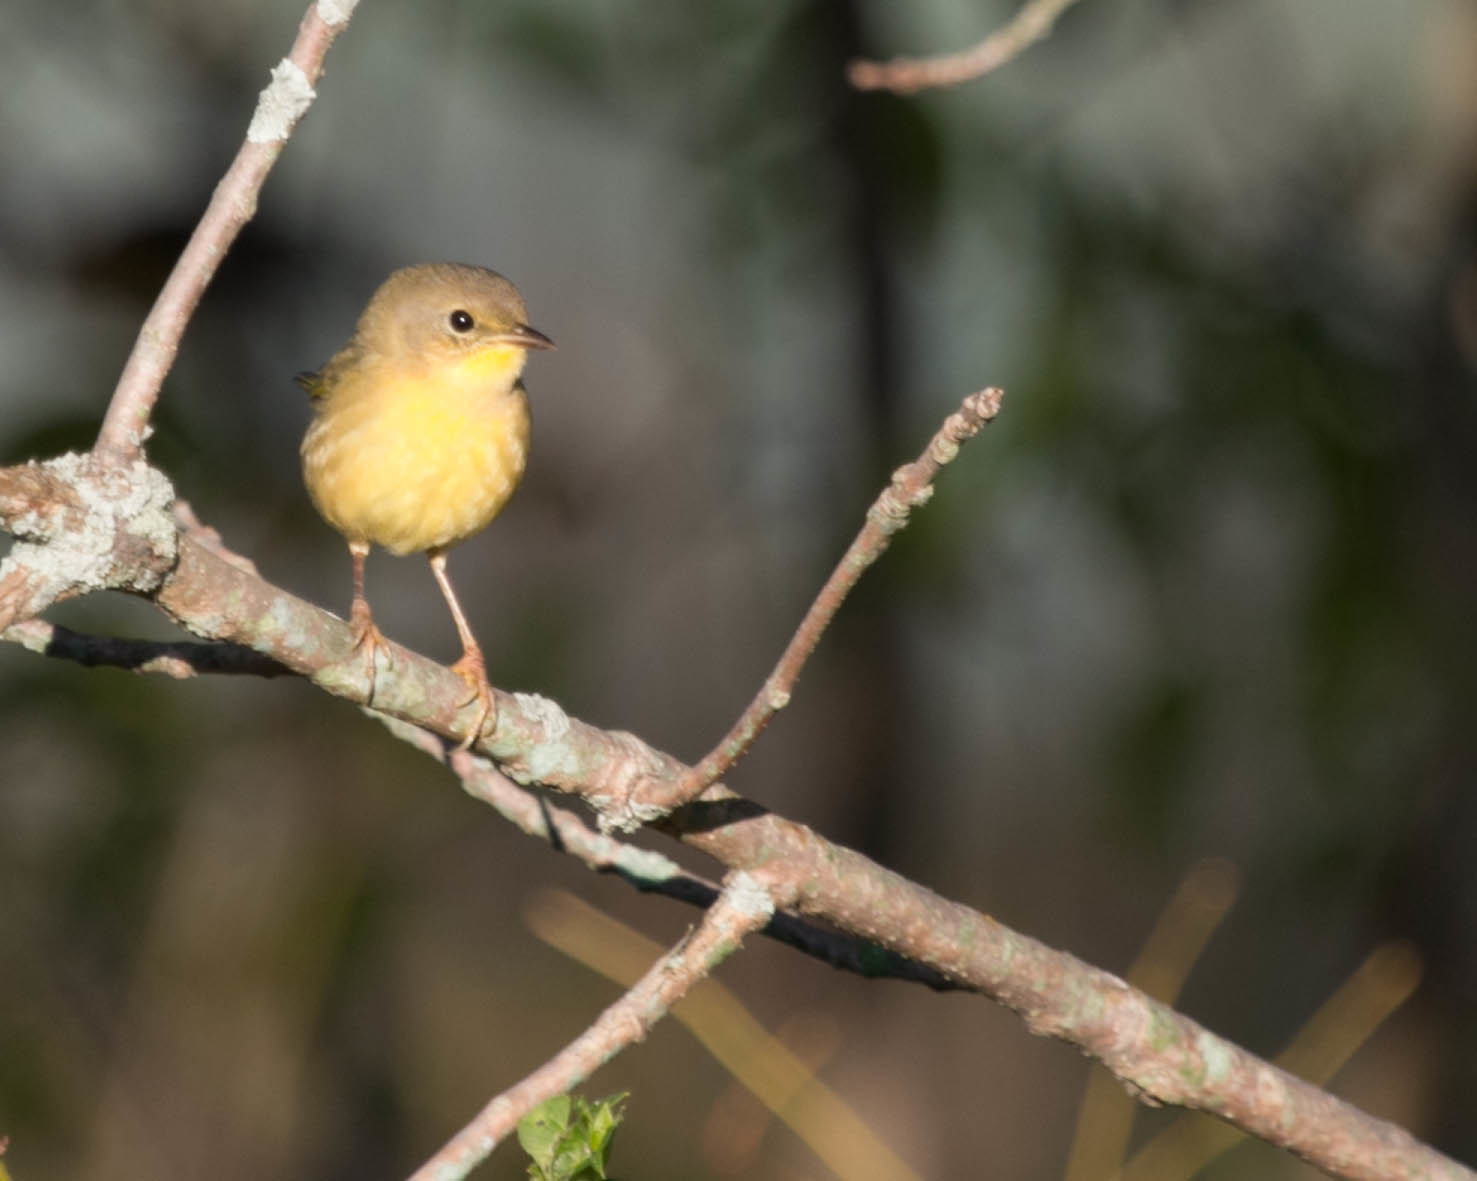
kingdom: Animalia
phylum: Chordata
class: Aves
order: Passeriformes
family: Parulidae
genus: Geothlypis
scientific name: Geothlypis trichas
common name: Common yellowthroat
